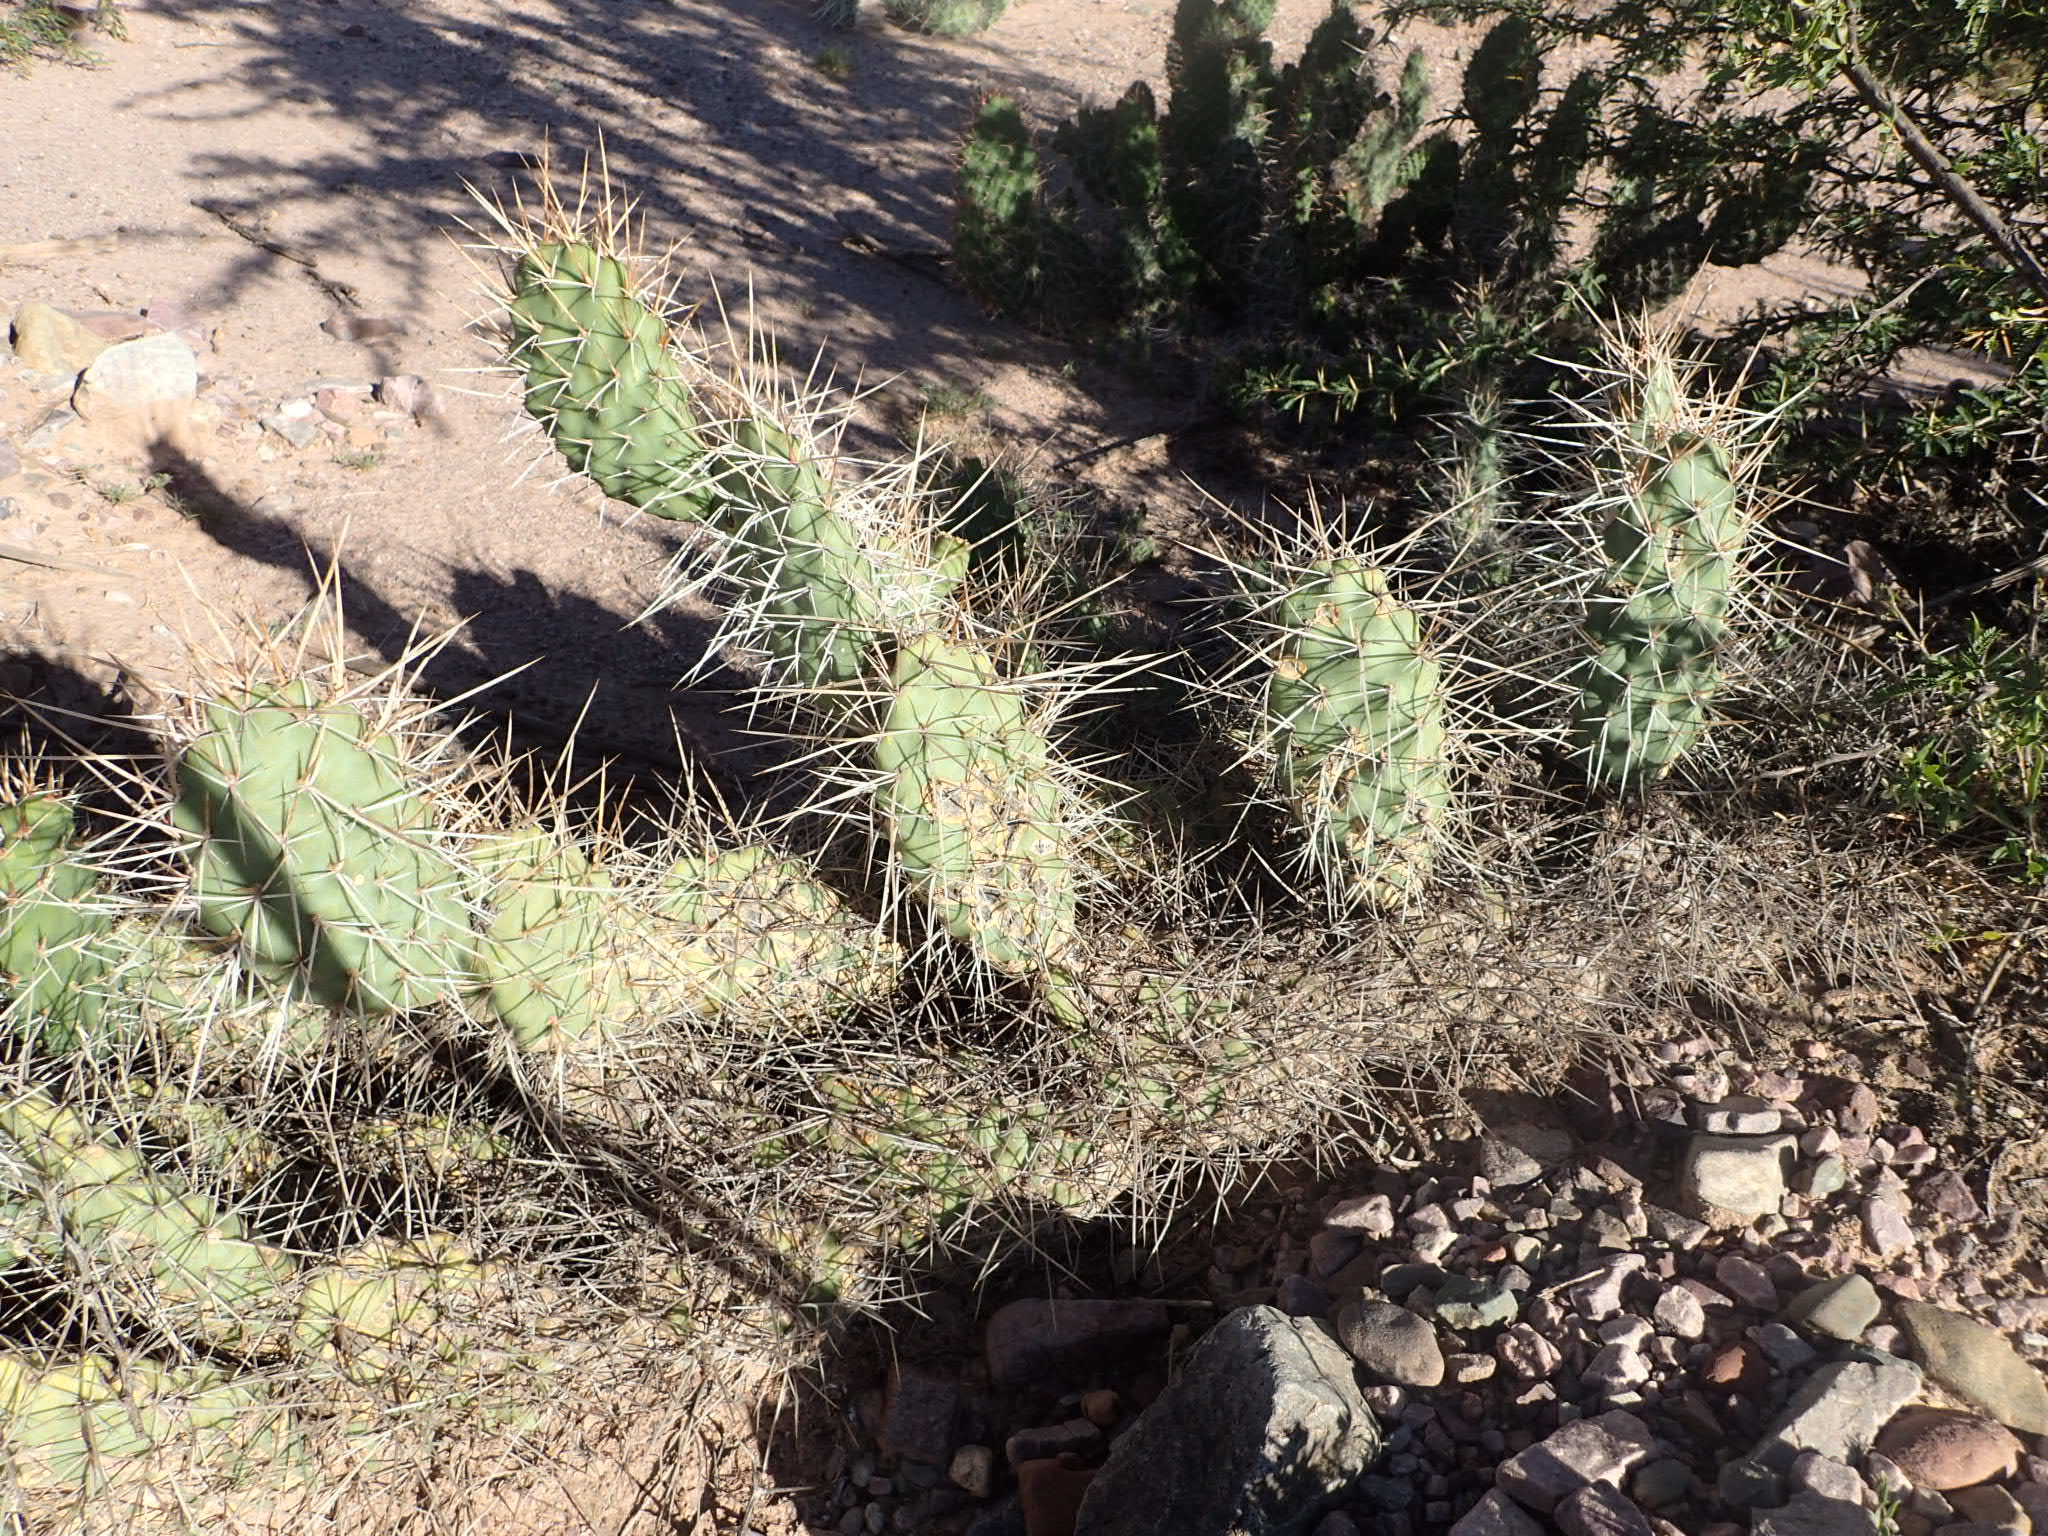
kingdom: Plantae
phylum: Tracheophyta
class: Magnoliopsida
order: Caryophyllales
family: Cactaceae
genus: Opuntia
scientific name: Opuntia sulphurea
